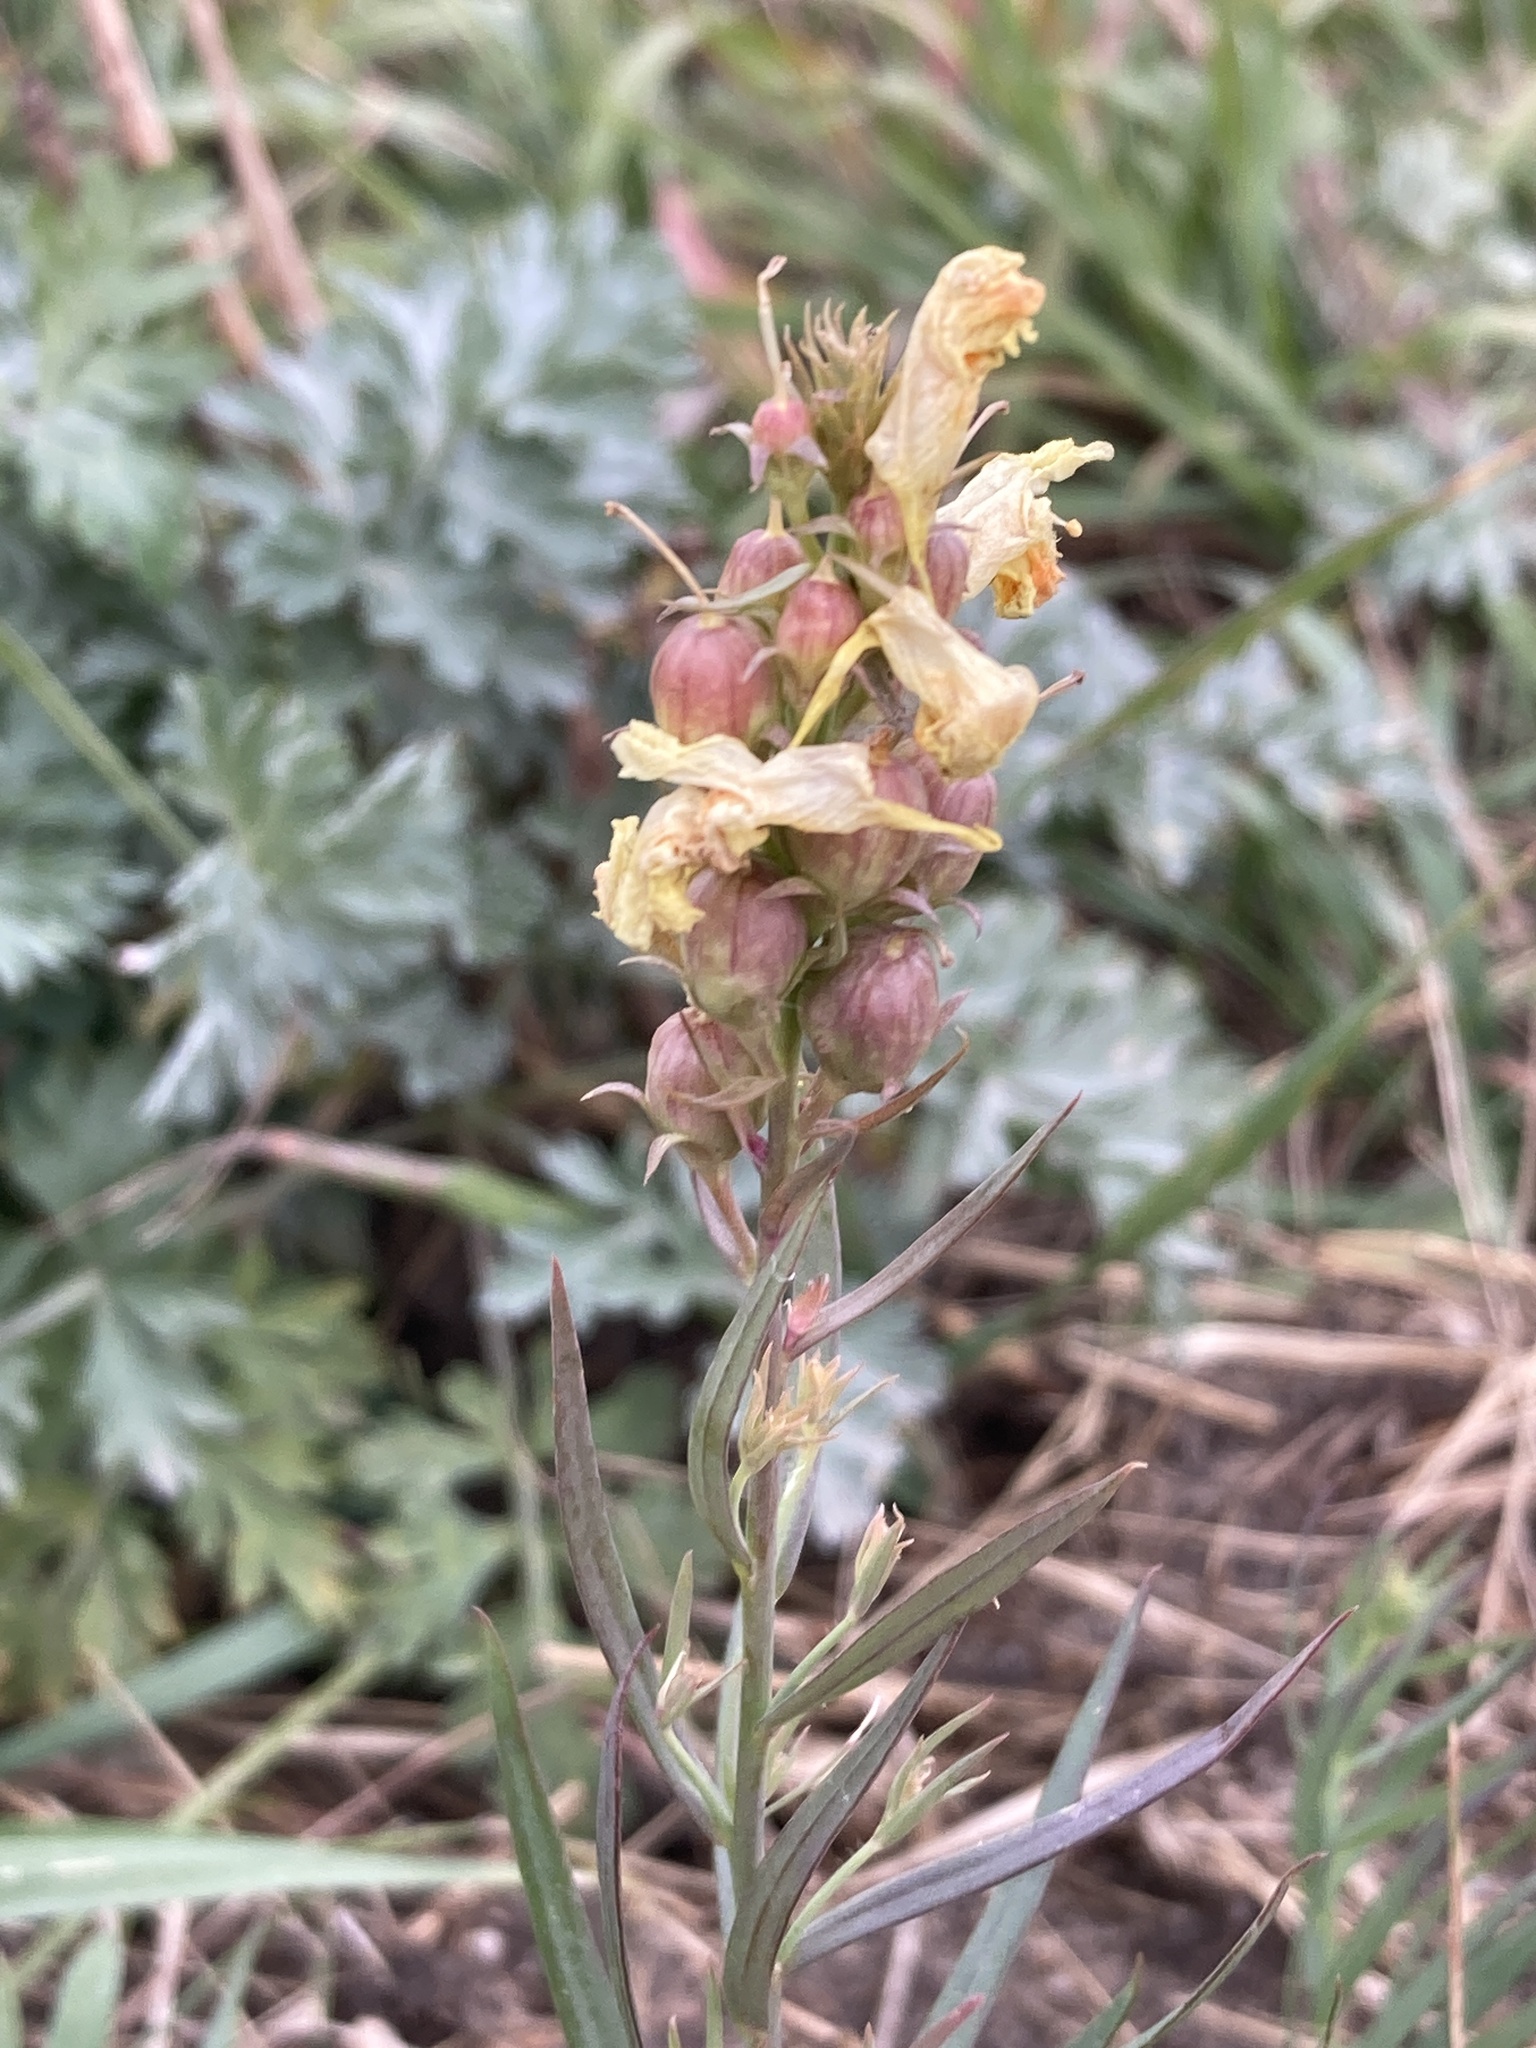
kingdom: Plantae
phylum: Tracheophyta
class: Magnoliopsida
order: Lamiales
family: Plantaginaceae
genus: Linaria
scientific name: Linaria vulgaris
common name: Butter and eggs
